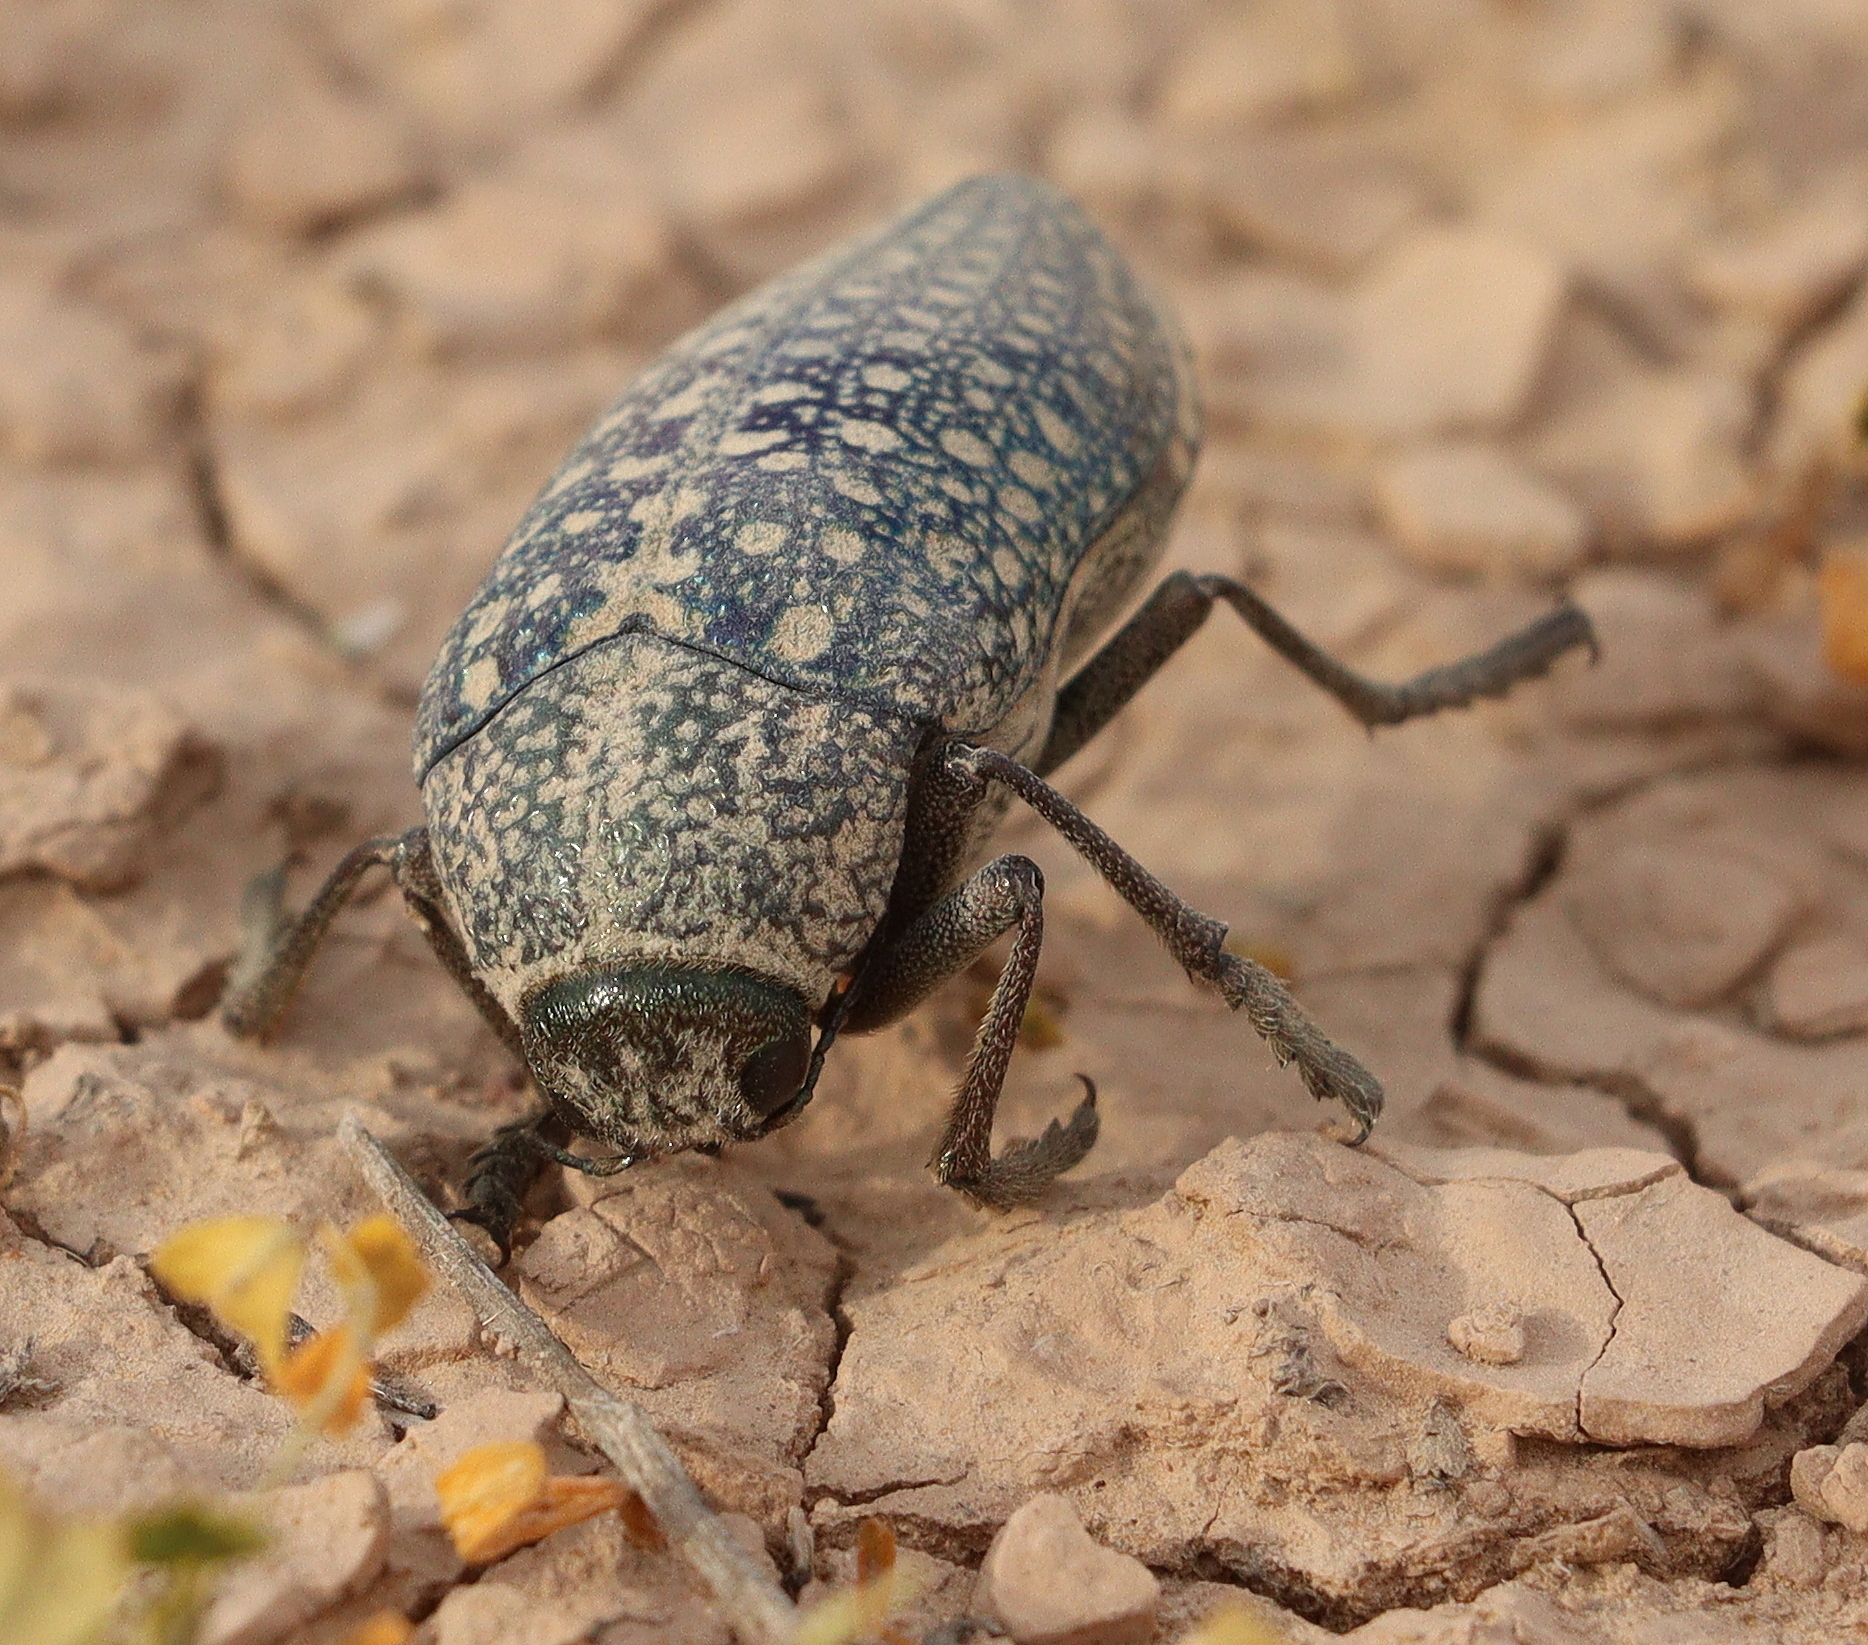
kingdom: Animalia
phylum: Arthropoda
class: Insecta
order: Coleoptera
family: Buprestidae
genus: Julodis
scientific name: Julodis euphratica
